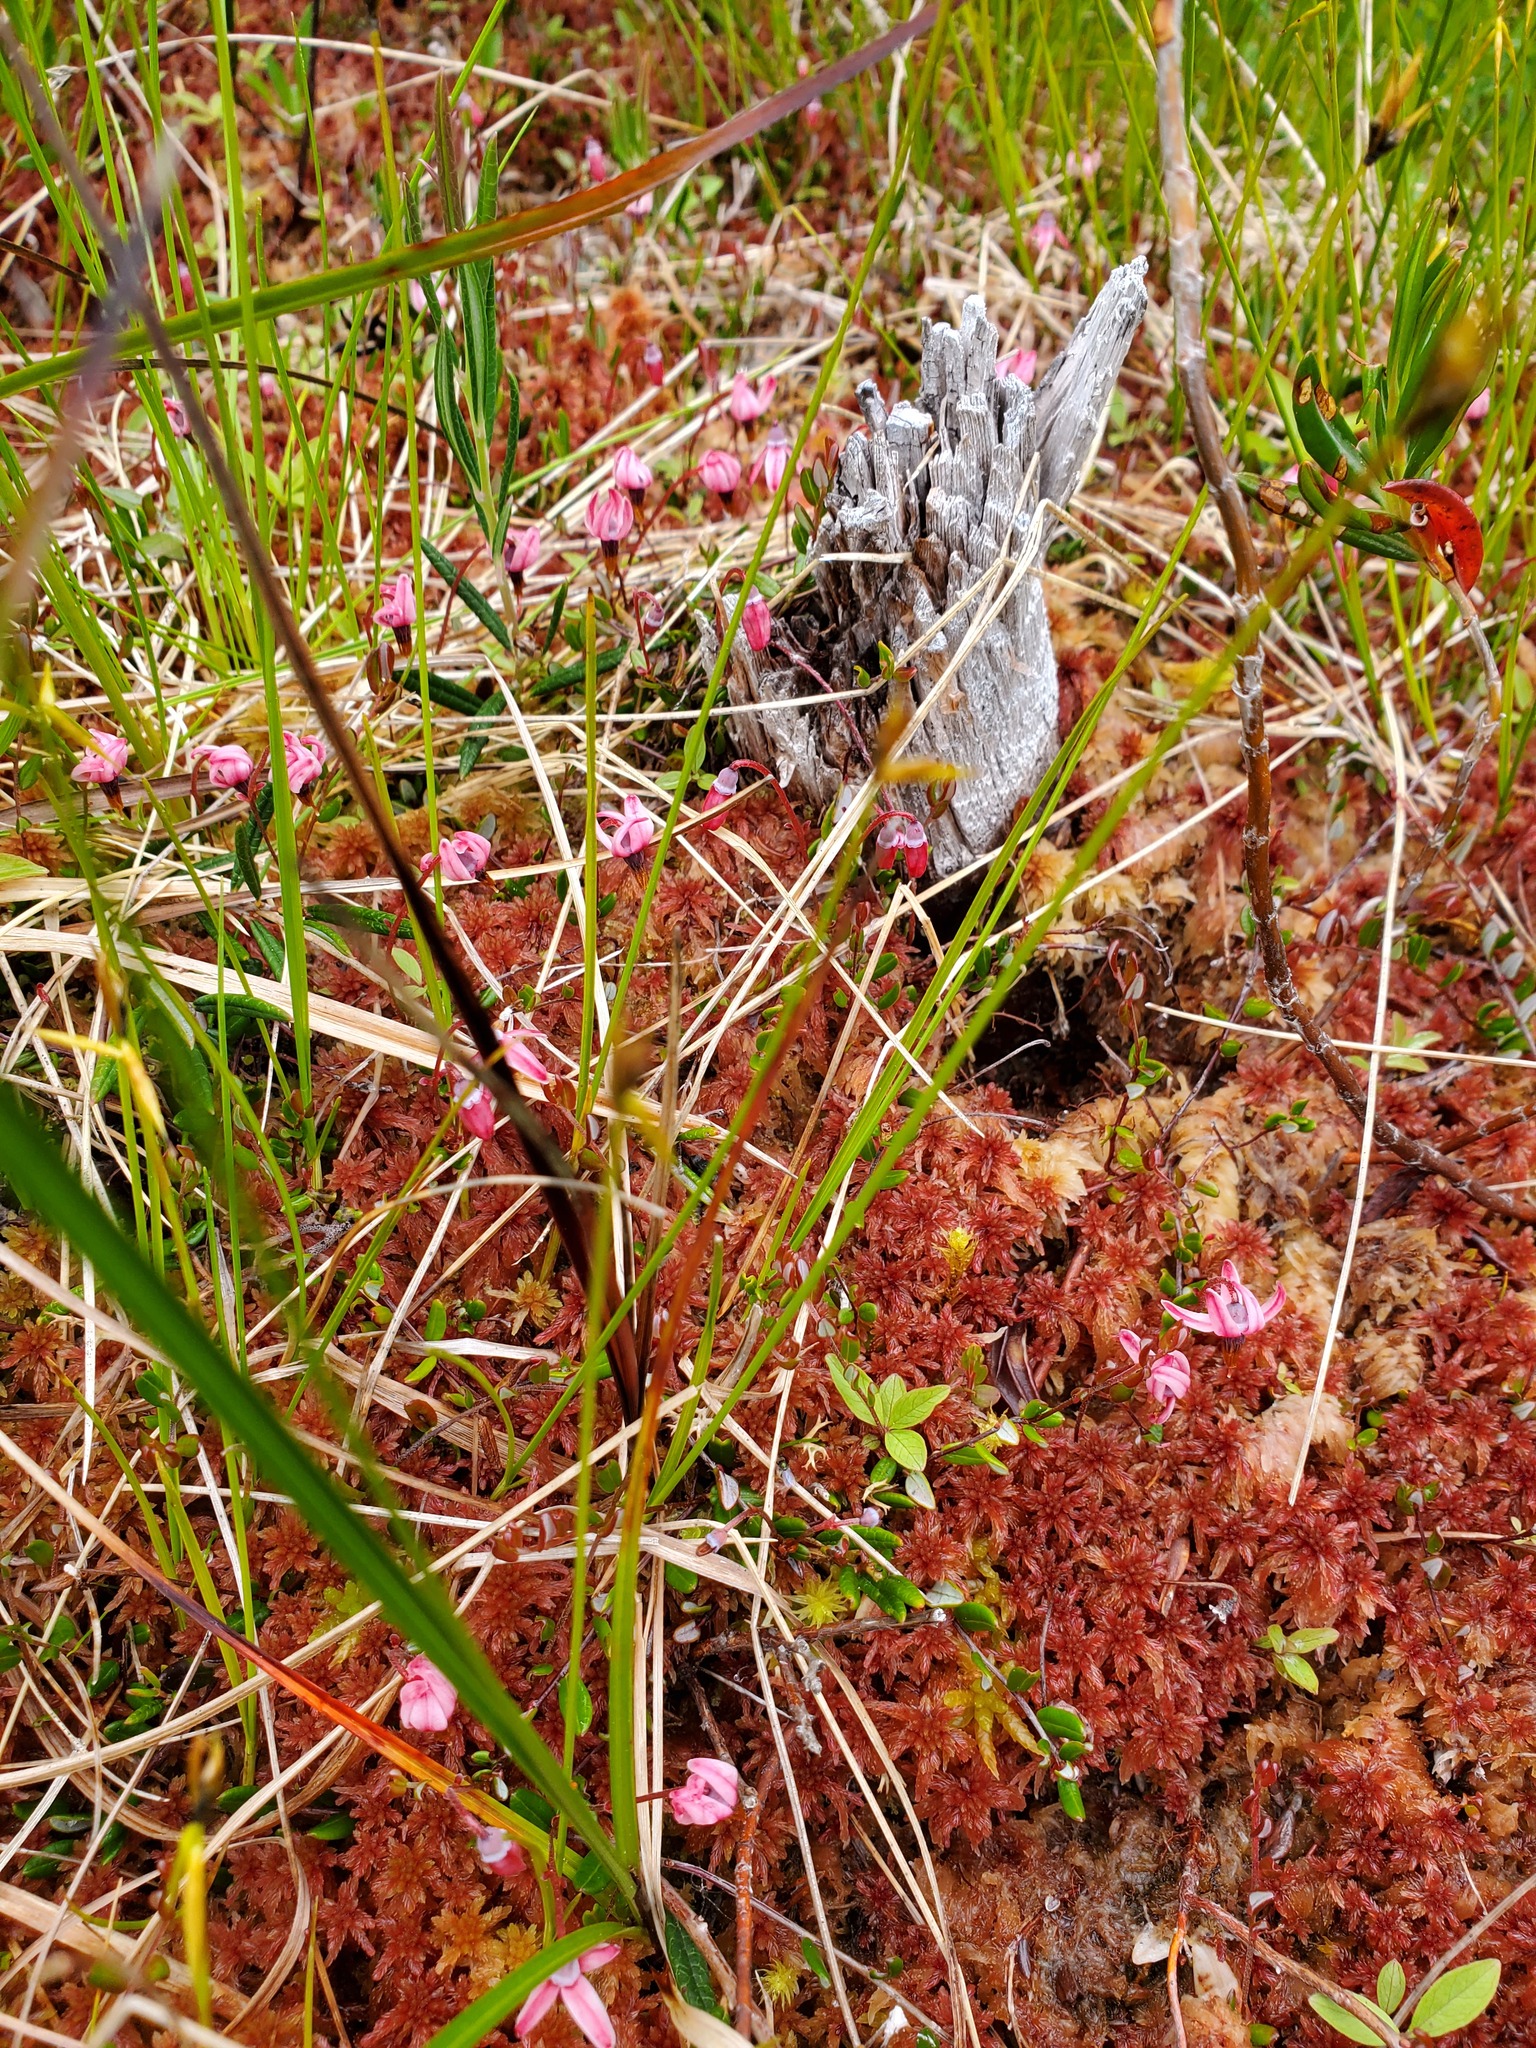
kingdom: Plantae
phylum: Tracheophyta
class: Magnoliopsida
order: Ericales
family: Ericaceae
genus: Vaccinium
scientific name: Vaccinium oxycoccos
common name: Cranberry
